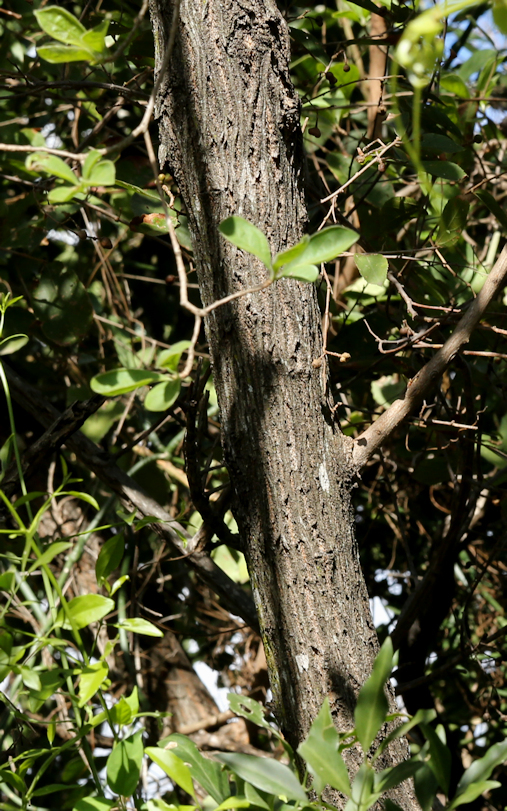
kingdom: Plantae
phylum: Tracheophyta
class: Magnoliopsida
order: Myrtales
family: Combretaceae
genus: Terminalia
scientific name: Terminalia phanerophlebia
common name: Lebombo cluster-leaf
